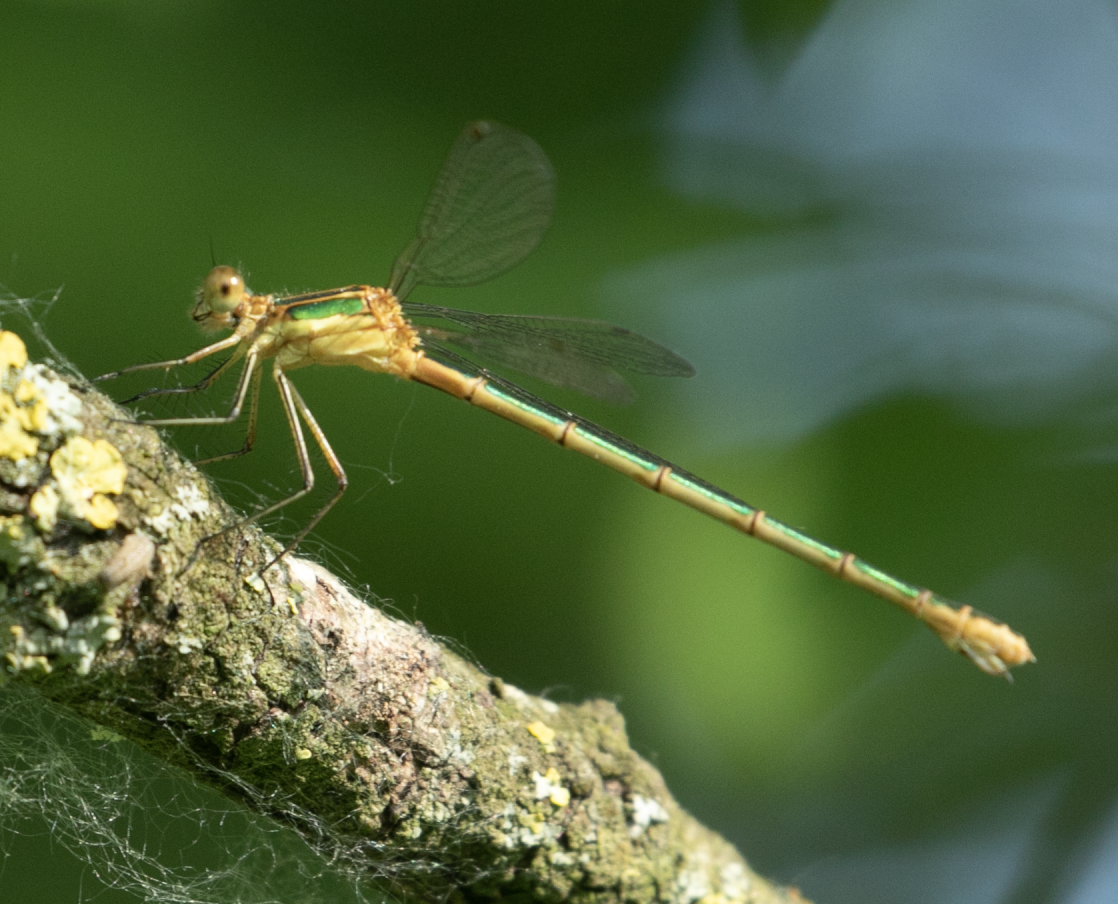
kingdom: Animalia
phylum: Arthropoda
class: Insecta
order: Odonata
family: Lestidae
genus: Lestes
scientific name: Lestes sponsa
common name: Common spreadwing
